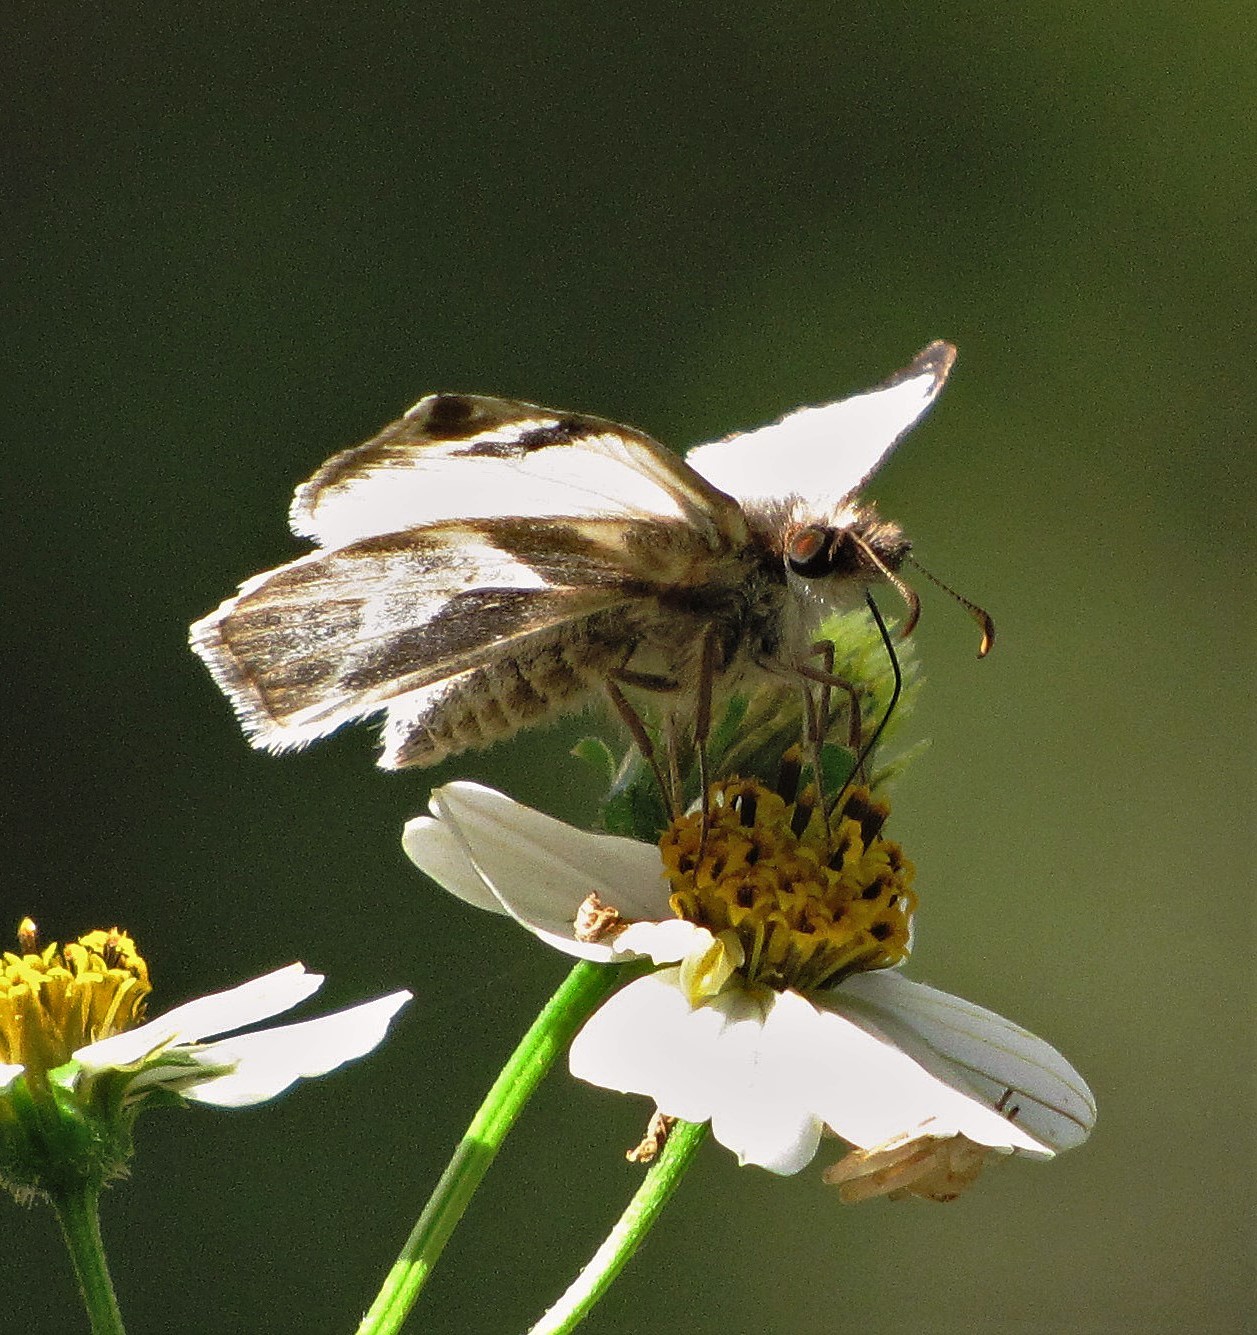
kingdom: Animalia
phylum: Arthropoda
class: Insecta
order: Lepidoptera
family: Hesperiidae
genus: Heliopetes
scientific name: Heliopetes laviana
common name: Laviana white-skipper
